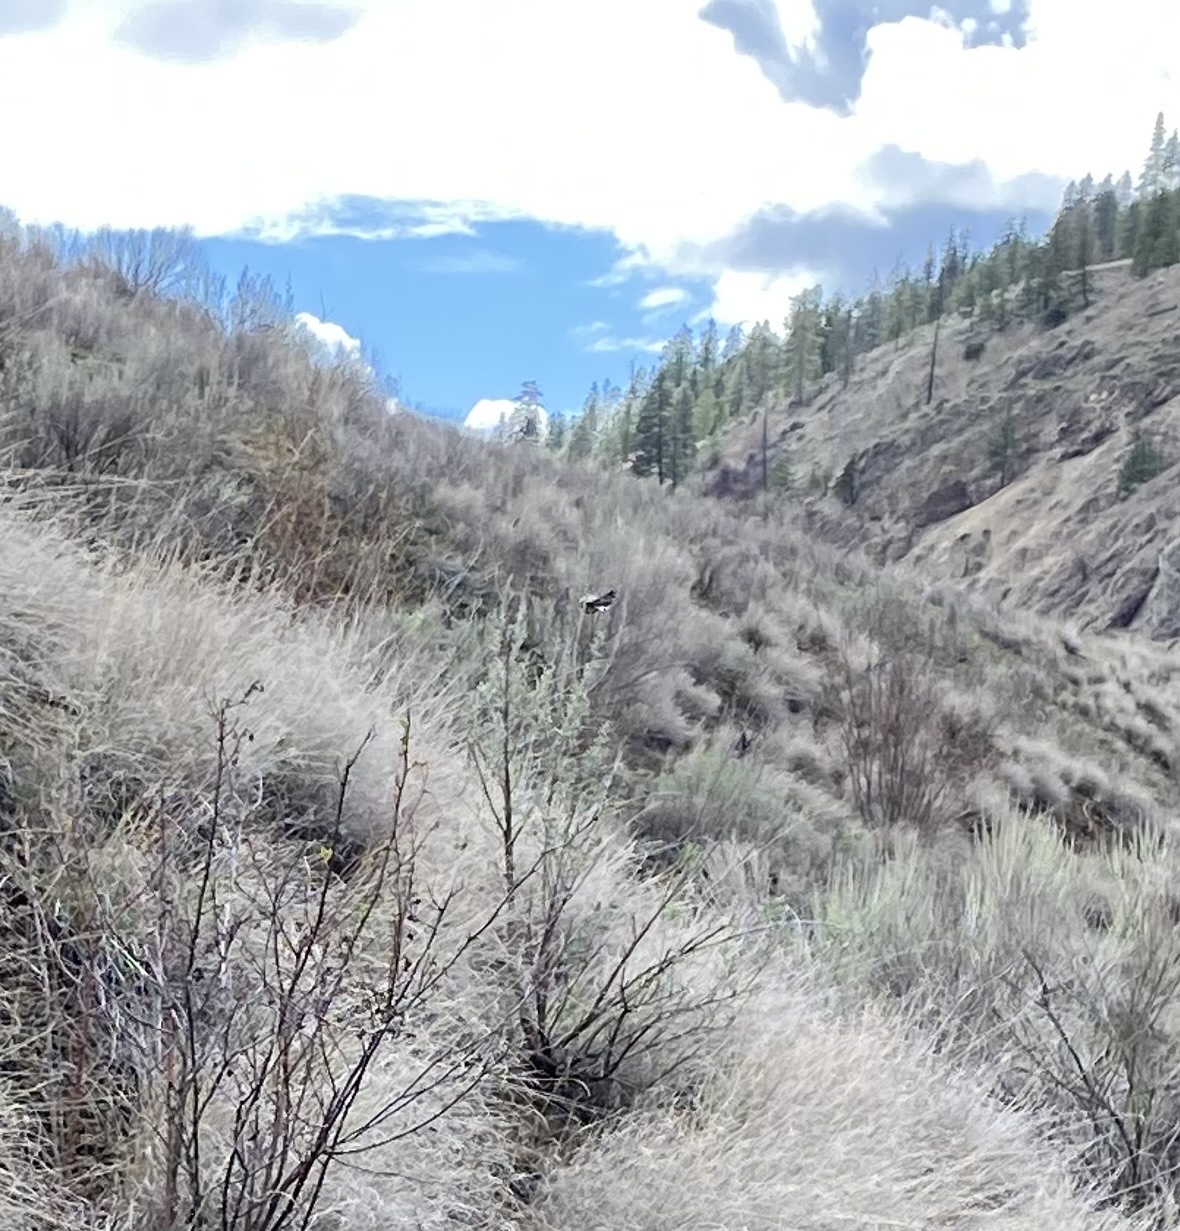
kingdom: Animalia
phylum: Chordata
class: Aves
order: Passeriformes
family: Passerellidae
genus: Pipilo
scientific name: Pipilo maculatus
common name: Spotted towhee
